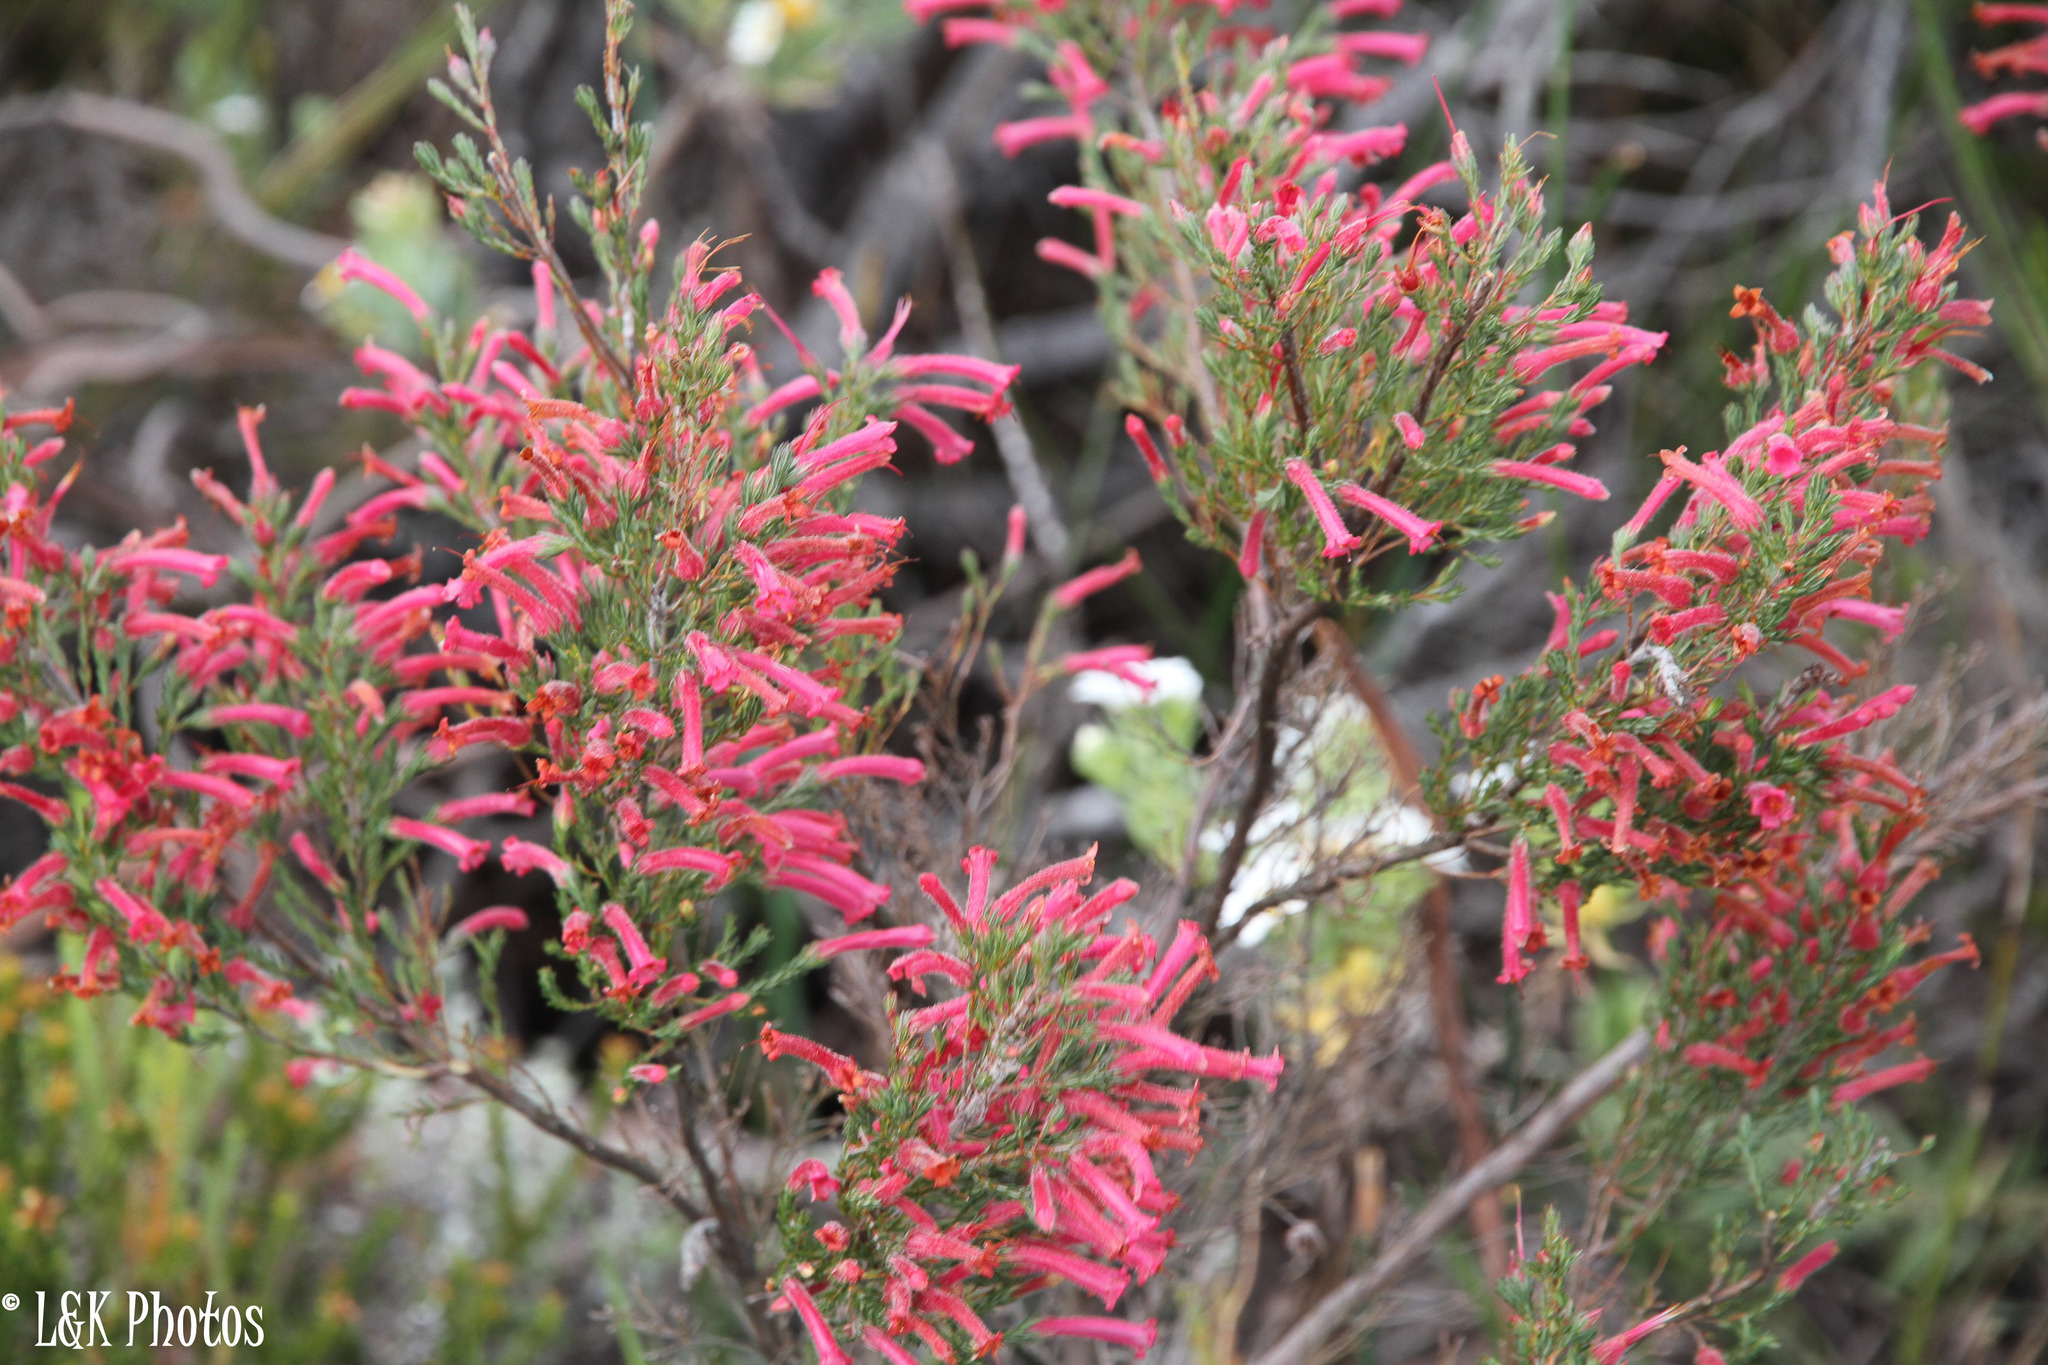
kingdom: Plantae
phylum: Tracheophyta
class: Magnoliopsida
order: Ericales
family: Ericaceae
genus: Erica
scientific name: Erica curviflora
